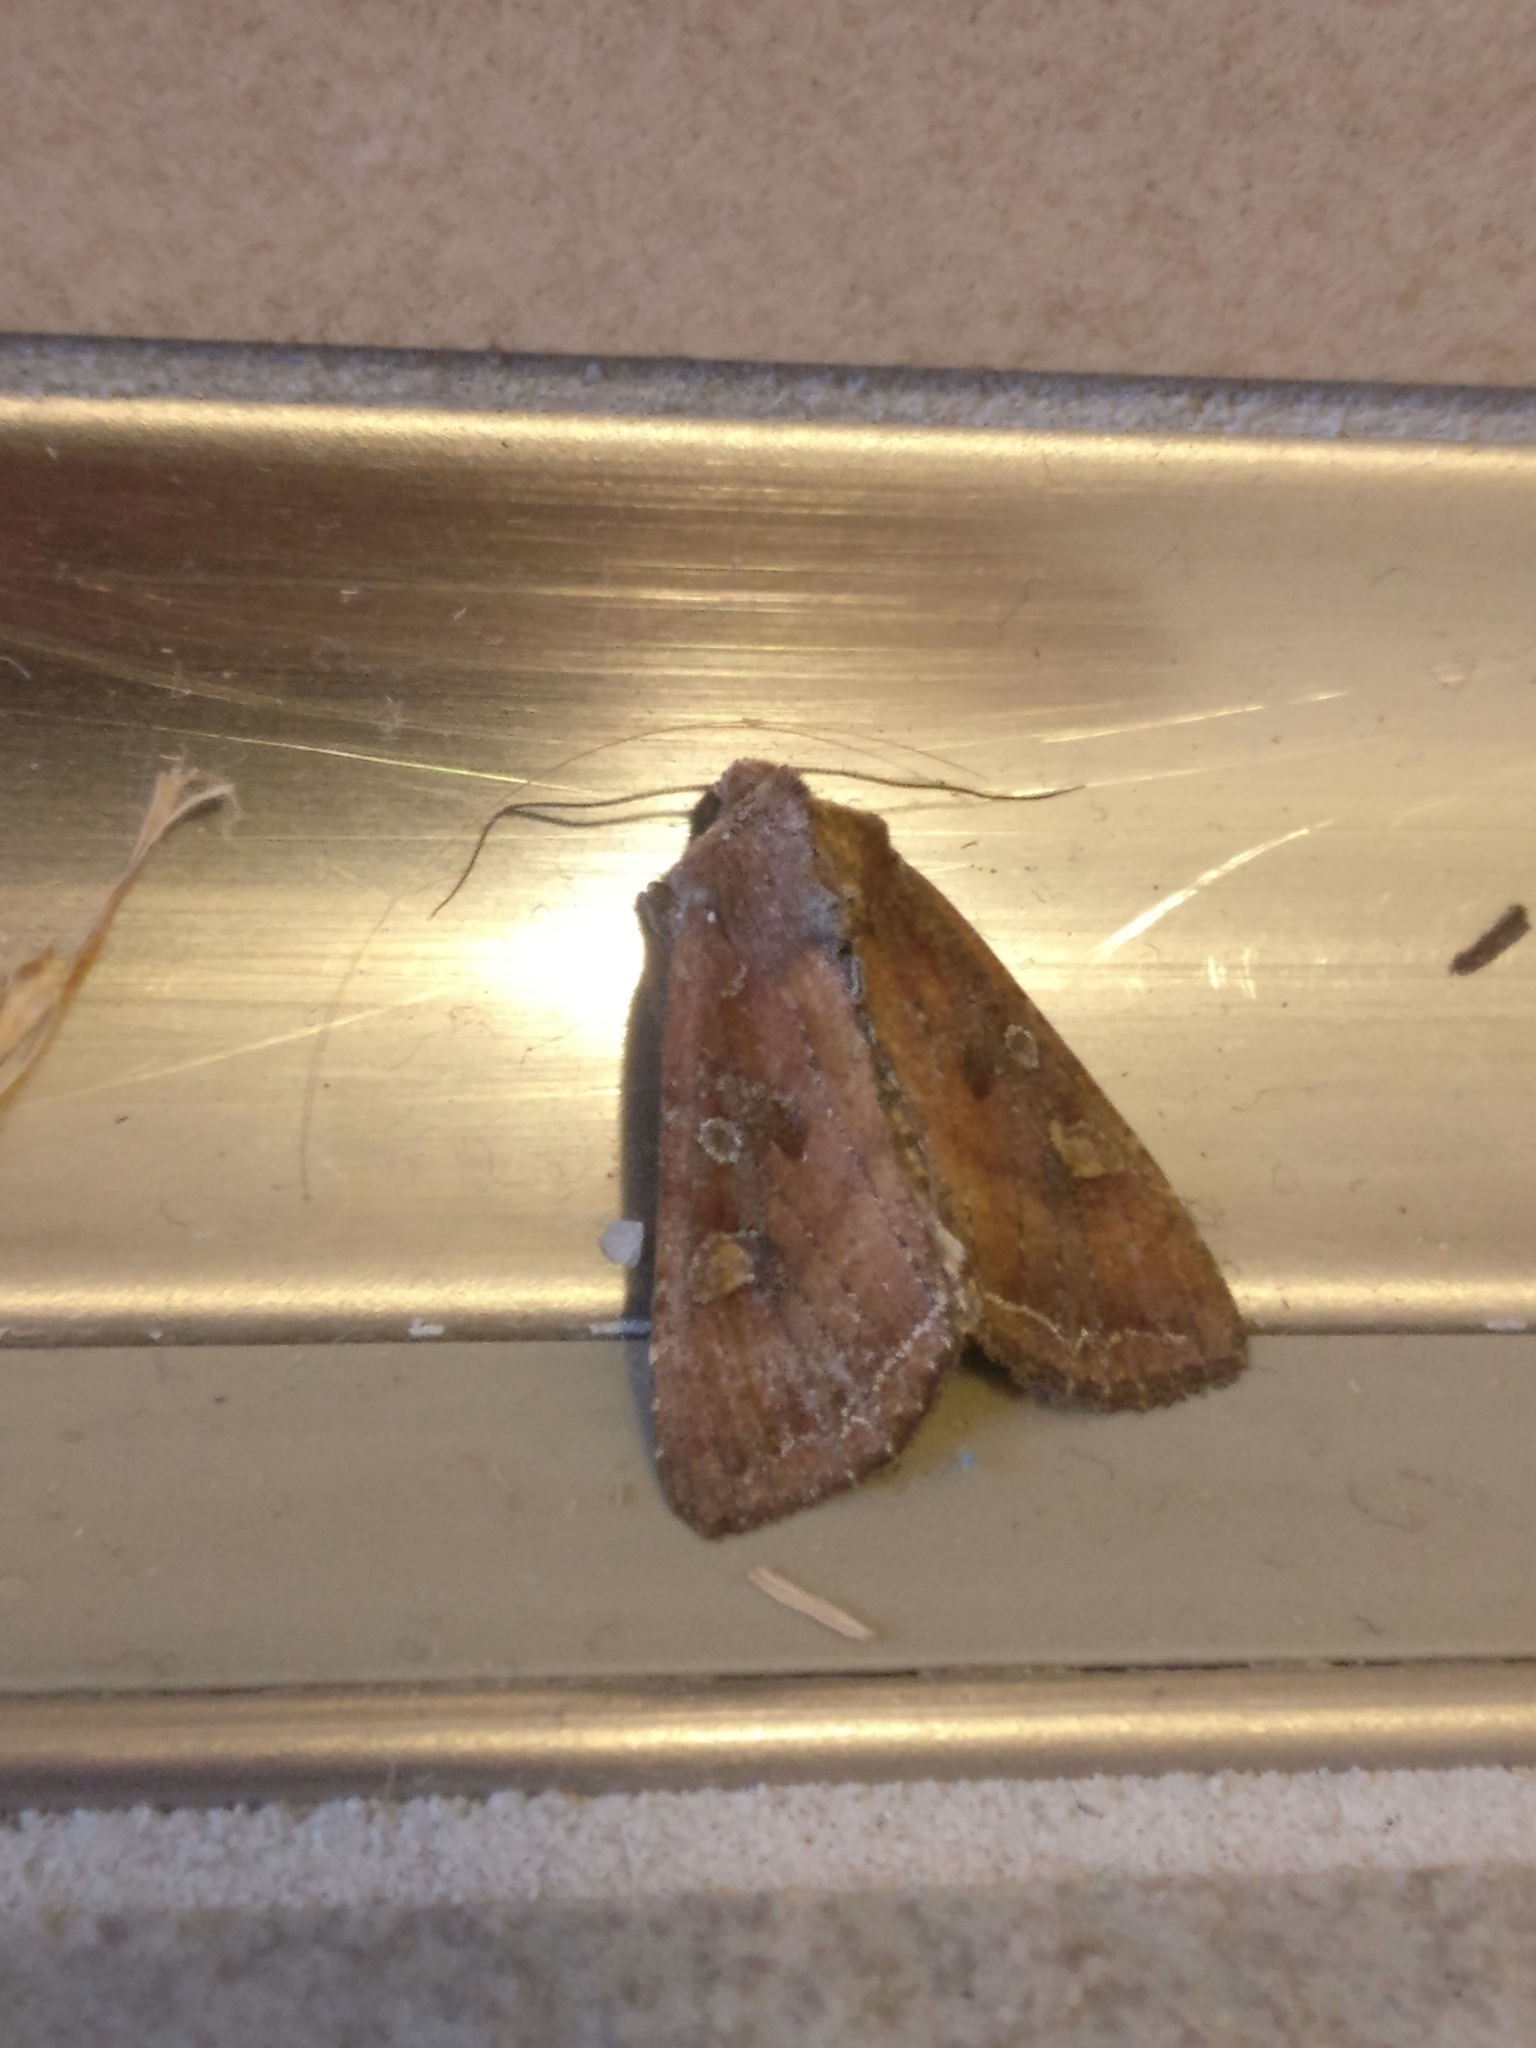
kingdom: Animalia
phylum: Arthropoda
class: Insecta
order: Lepidoptera
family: Noctuidae
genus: Lacanobia
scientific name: Lacanobia oleracea
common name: Bright-line brown-eye
